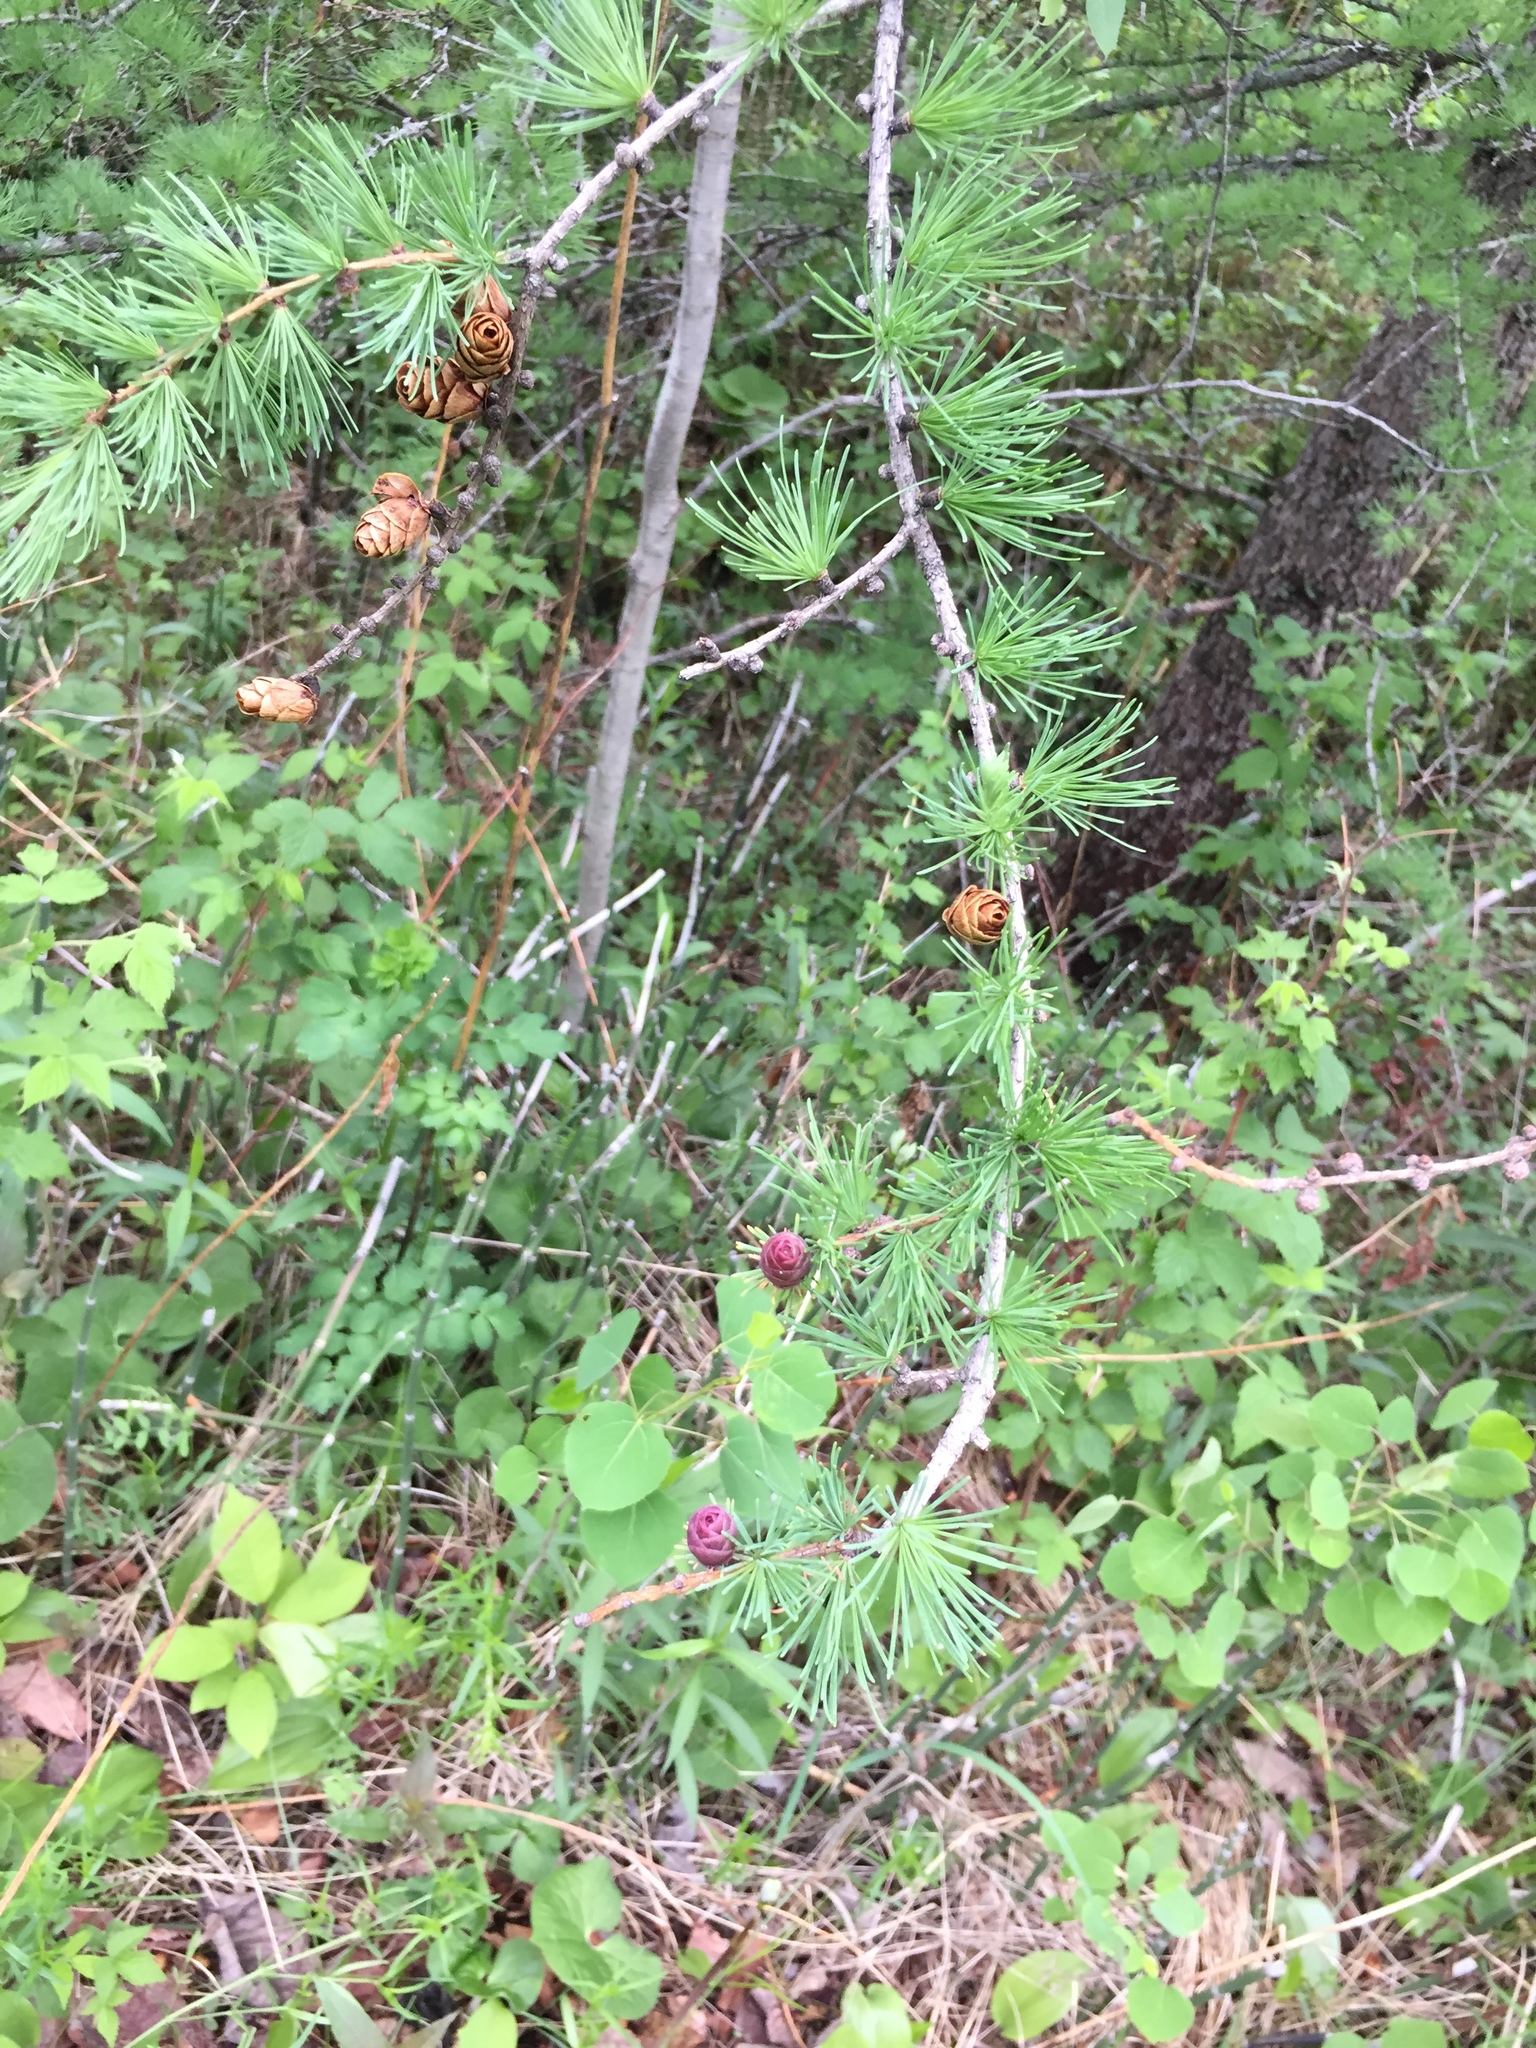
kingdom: Plantae
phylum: Tracheophyta
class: Pinopsida
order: Pinales
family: Pinaceae
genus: Larix
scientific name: Larix laricina
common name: American larch
